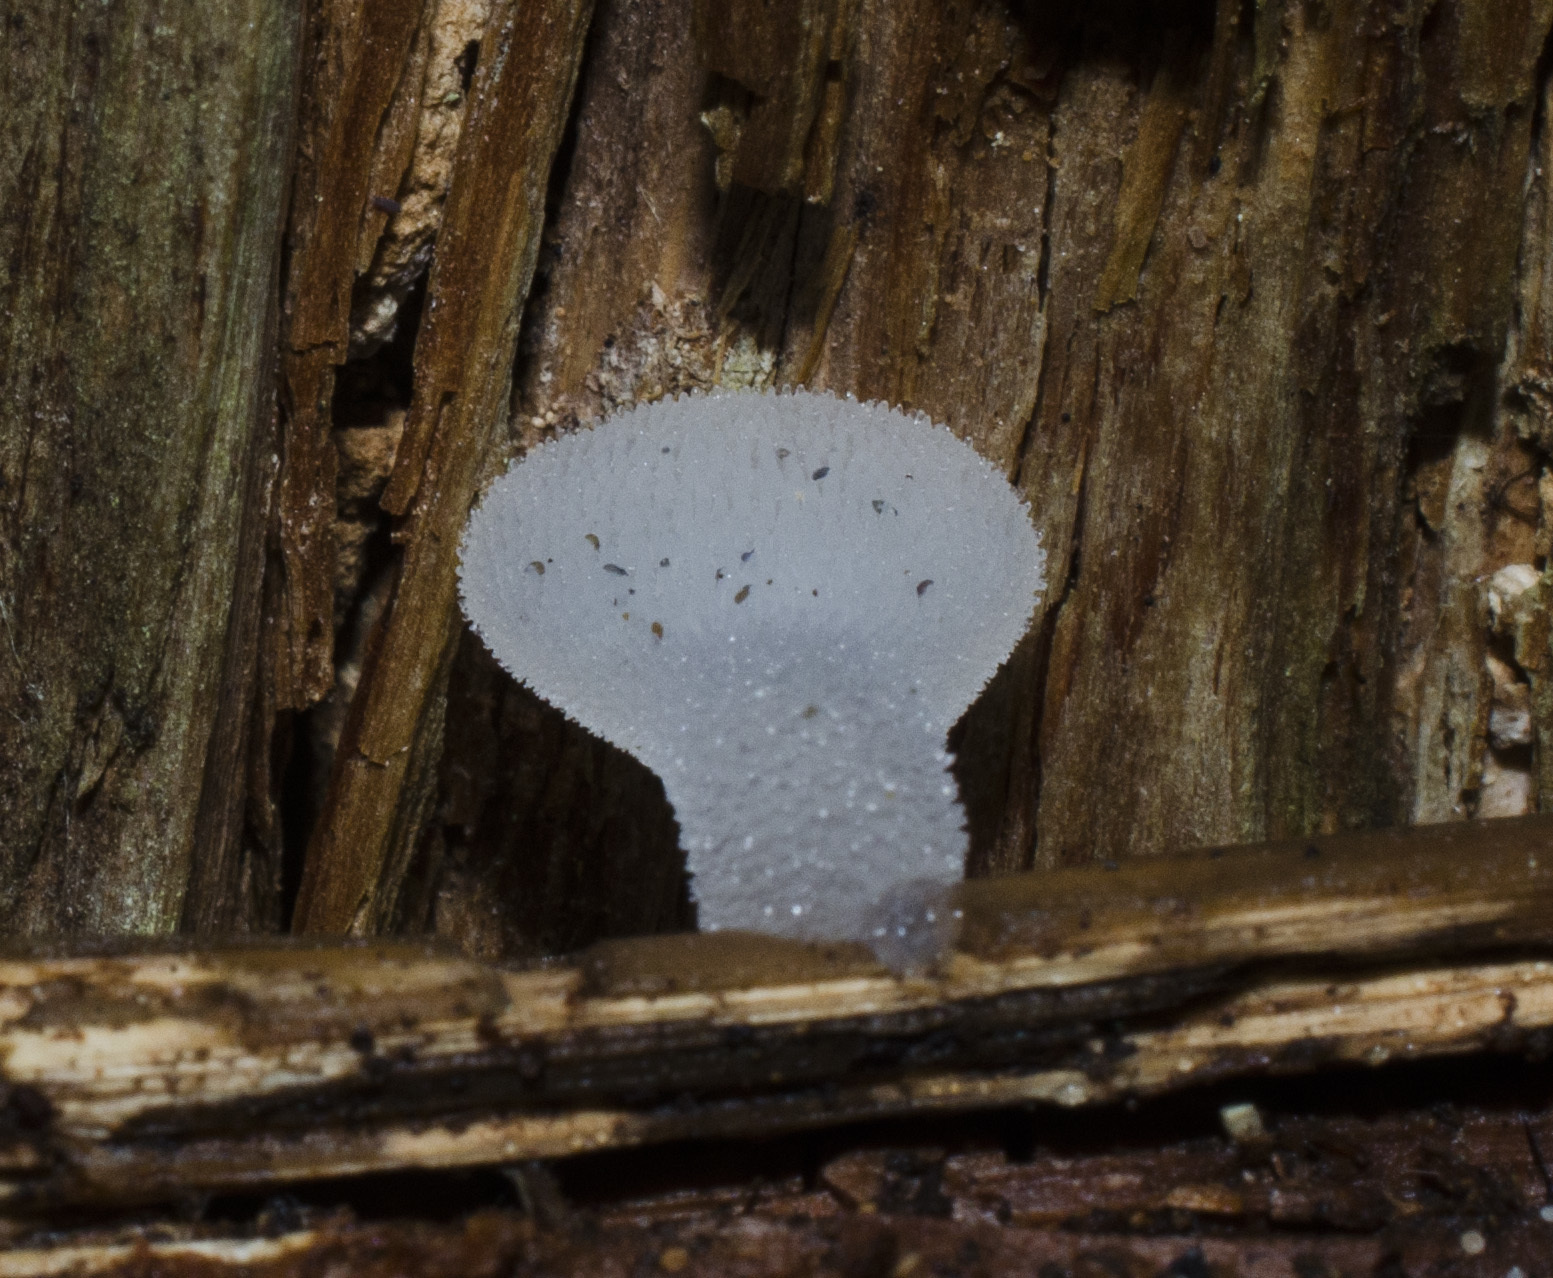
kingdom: Fungi
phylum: Basidiomycota
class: Agaricomycetes
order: Auriculariales
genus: Pseudohydnum
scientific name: Pseudohydnum gelatinosum
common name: Jelly tongue
